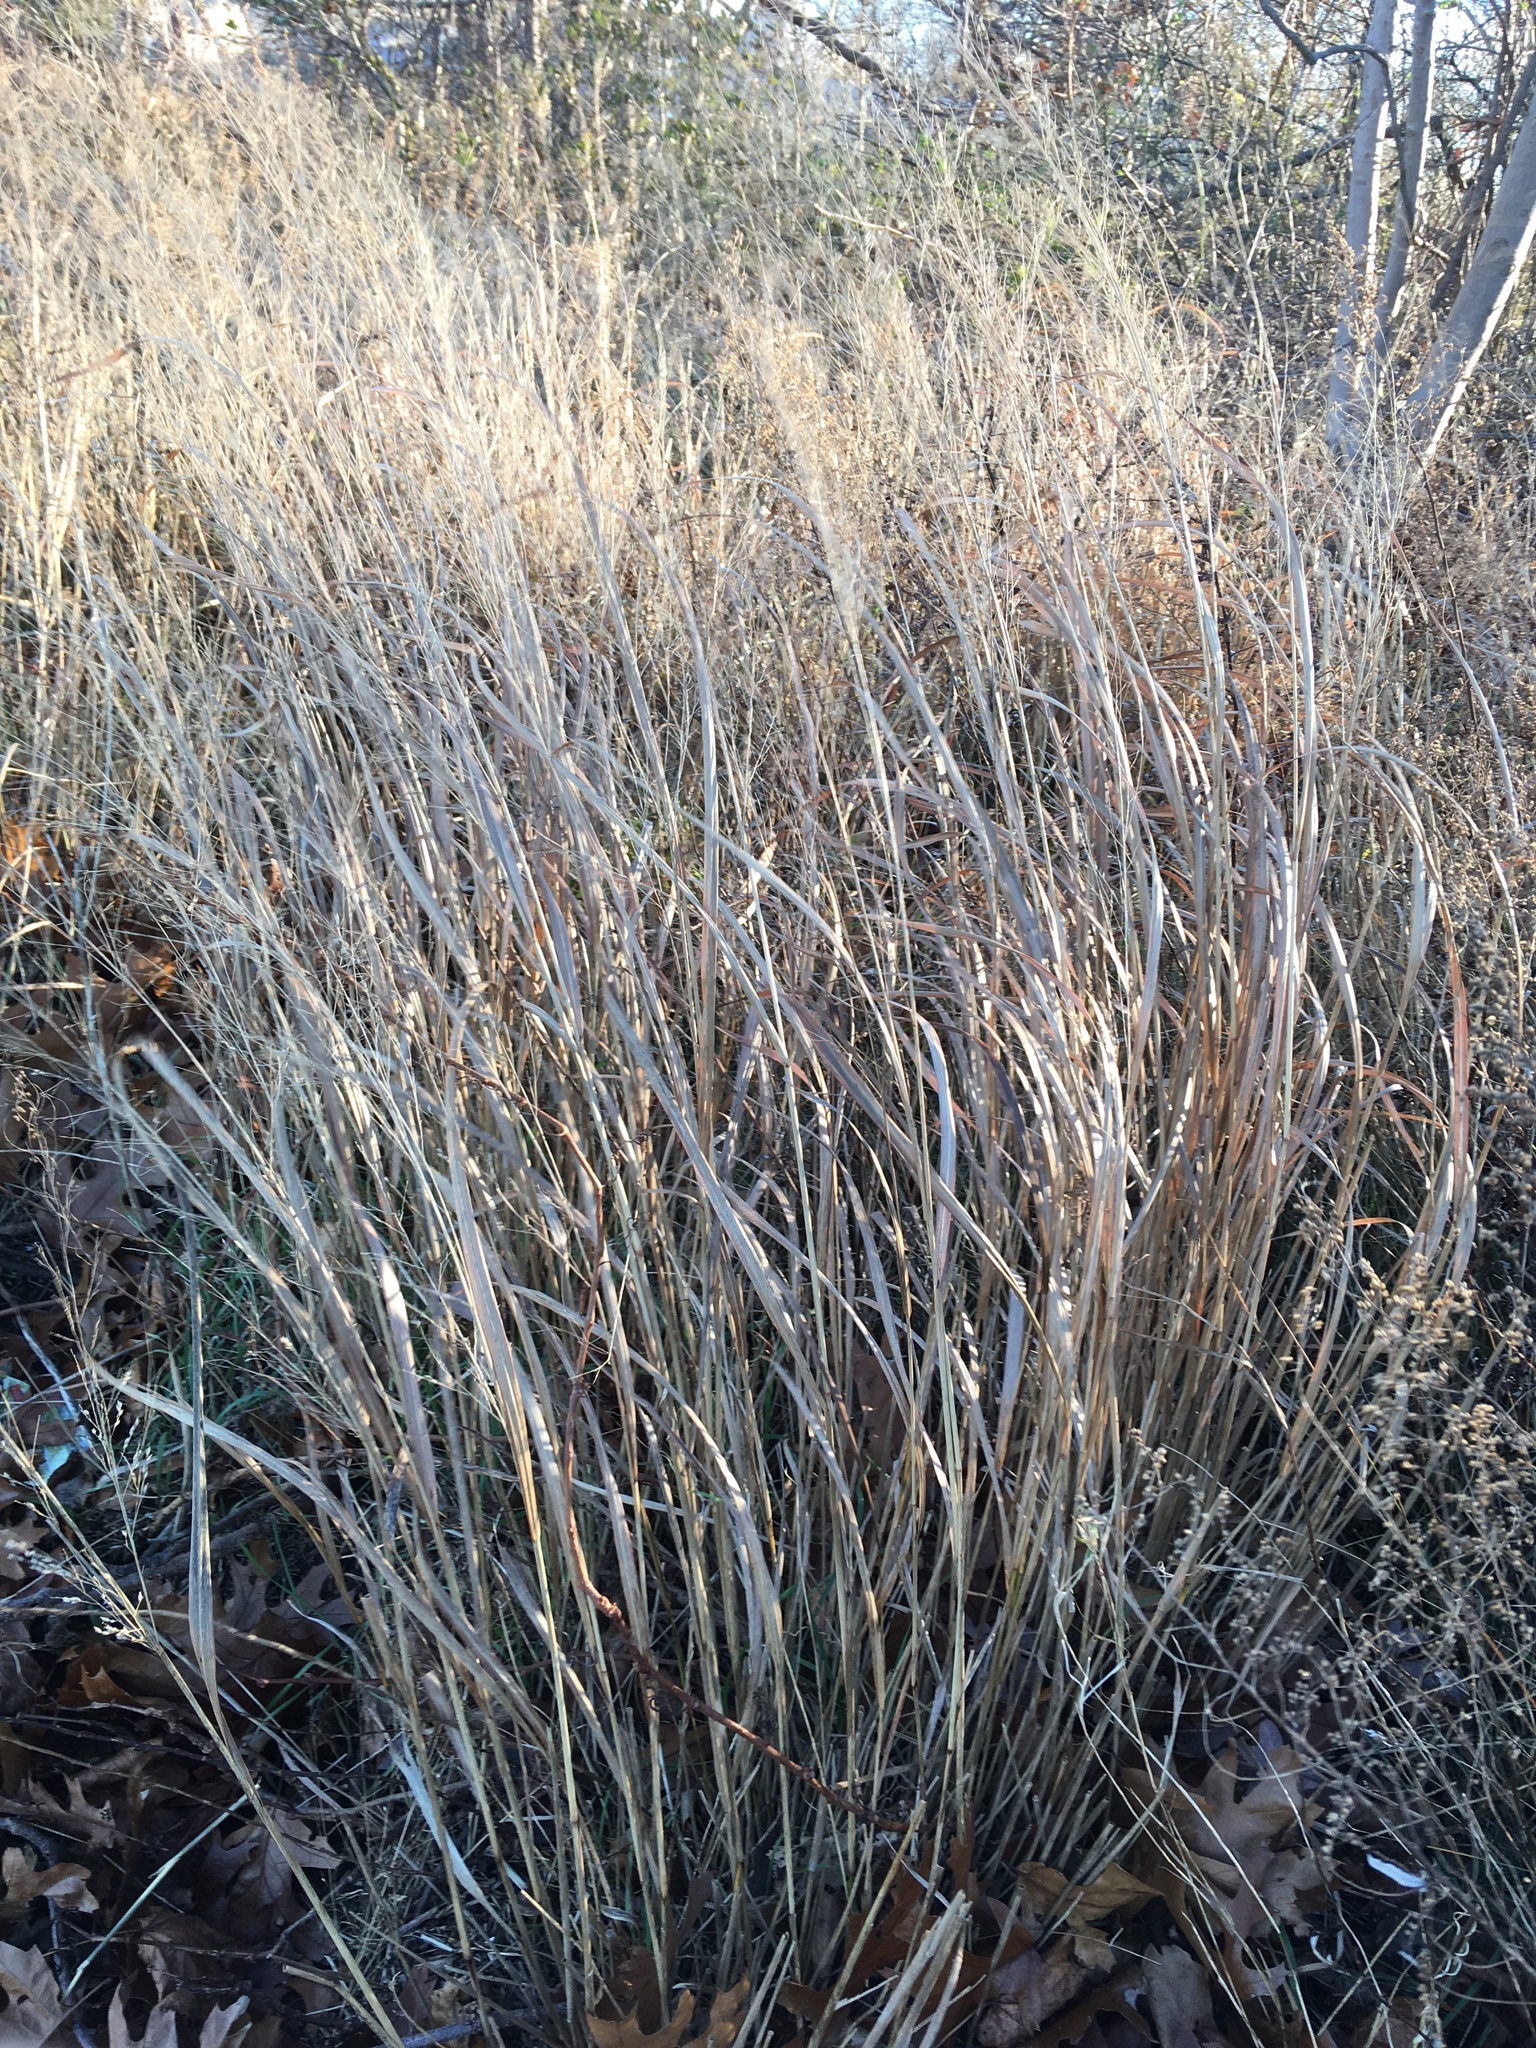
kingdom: Plantae
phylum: Tracheophyta
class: Liliopsida
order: Poales
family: Poaceae
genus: Panicum
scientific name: Panicum virgatum
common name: Switchgrass
